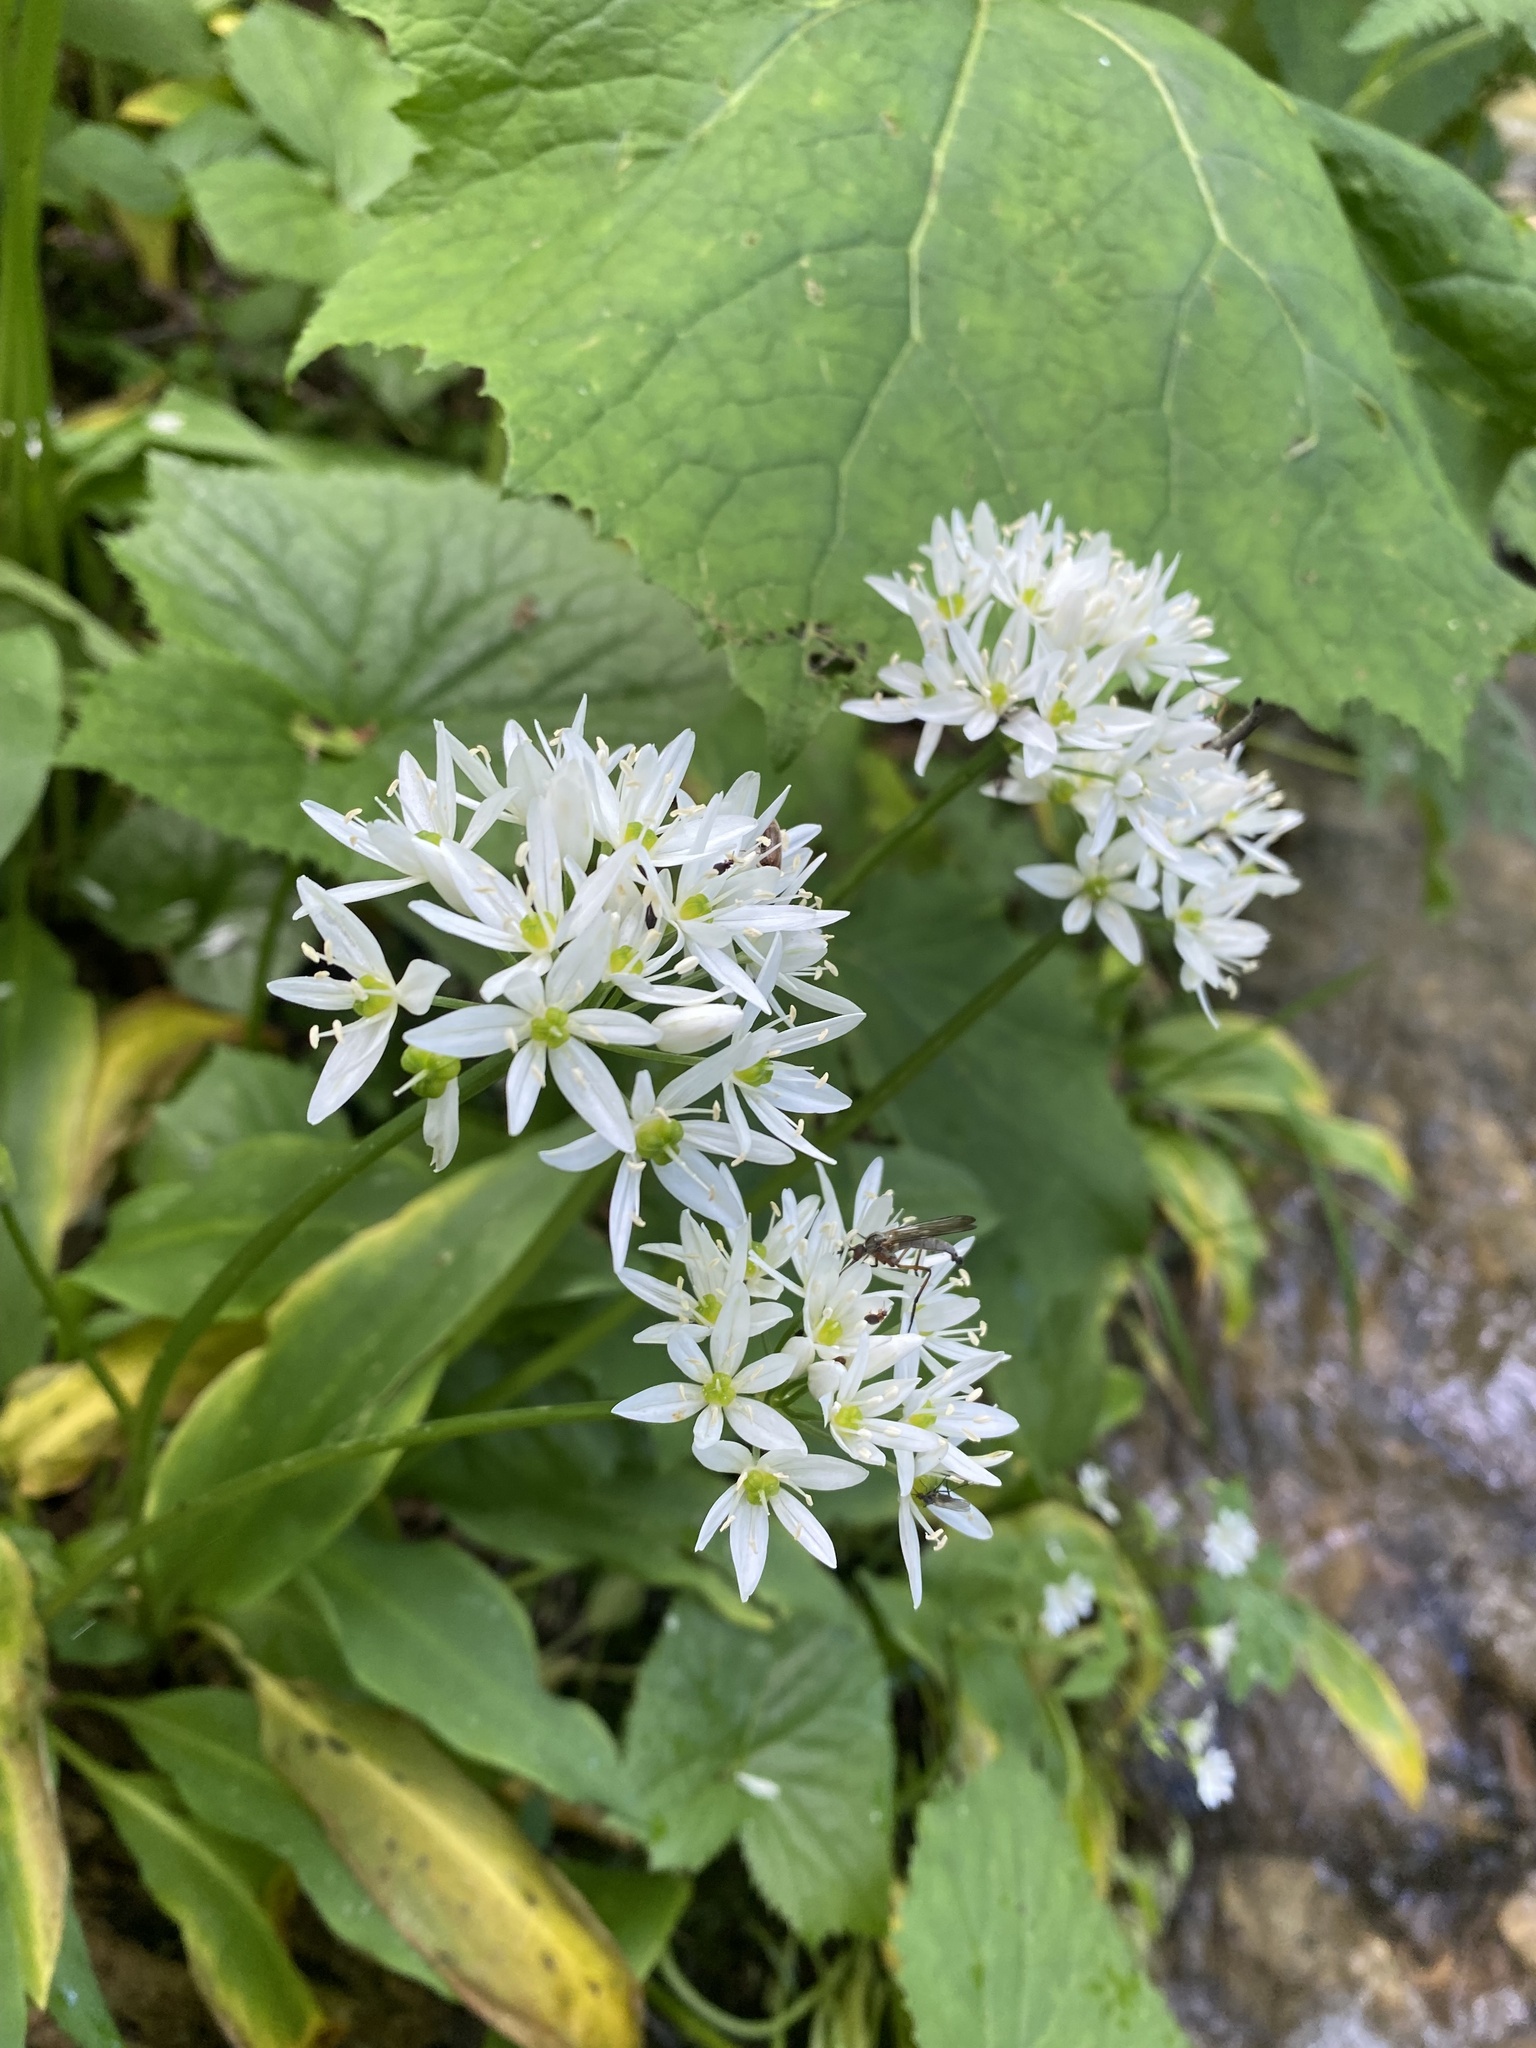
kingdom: Plantae
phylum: Tracheophyta
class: Liliopsida
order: Asparagales
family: Amaryllidaceae
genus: Allium
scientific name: Allium ursinum
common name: Ramsons
